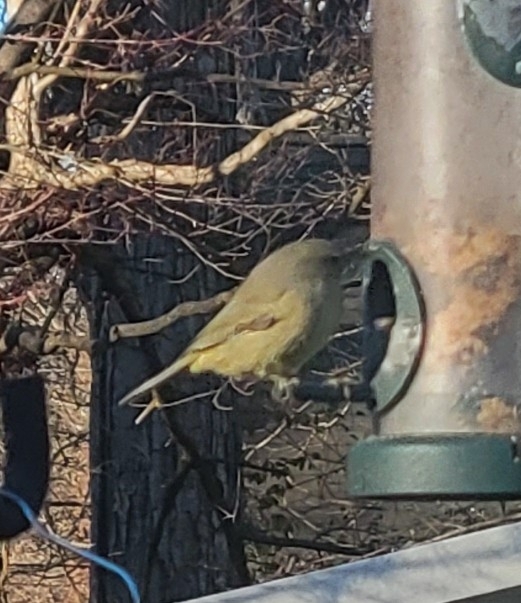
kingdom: Animalia
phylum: Chordata
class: Aves
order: Passeriformes
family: Parulidae
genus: Leiothlypis
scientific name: Leiothlypis celata
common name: Orange-crowned warbler
